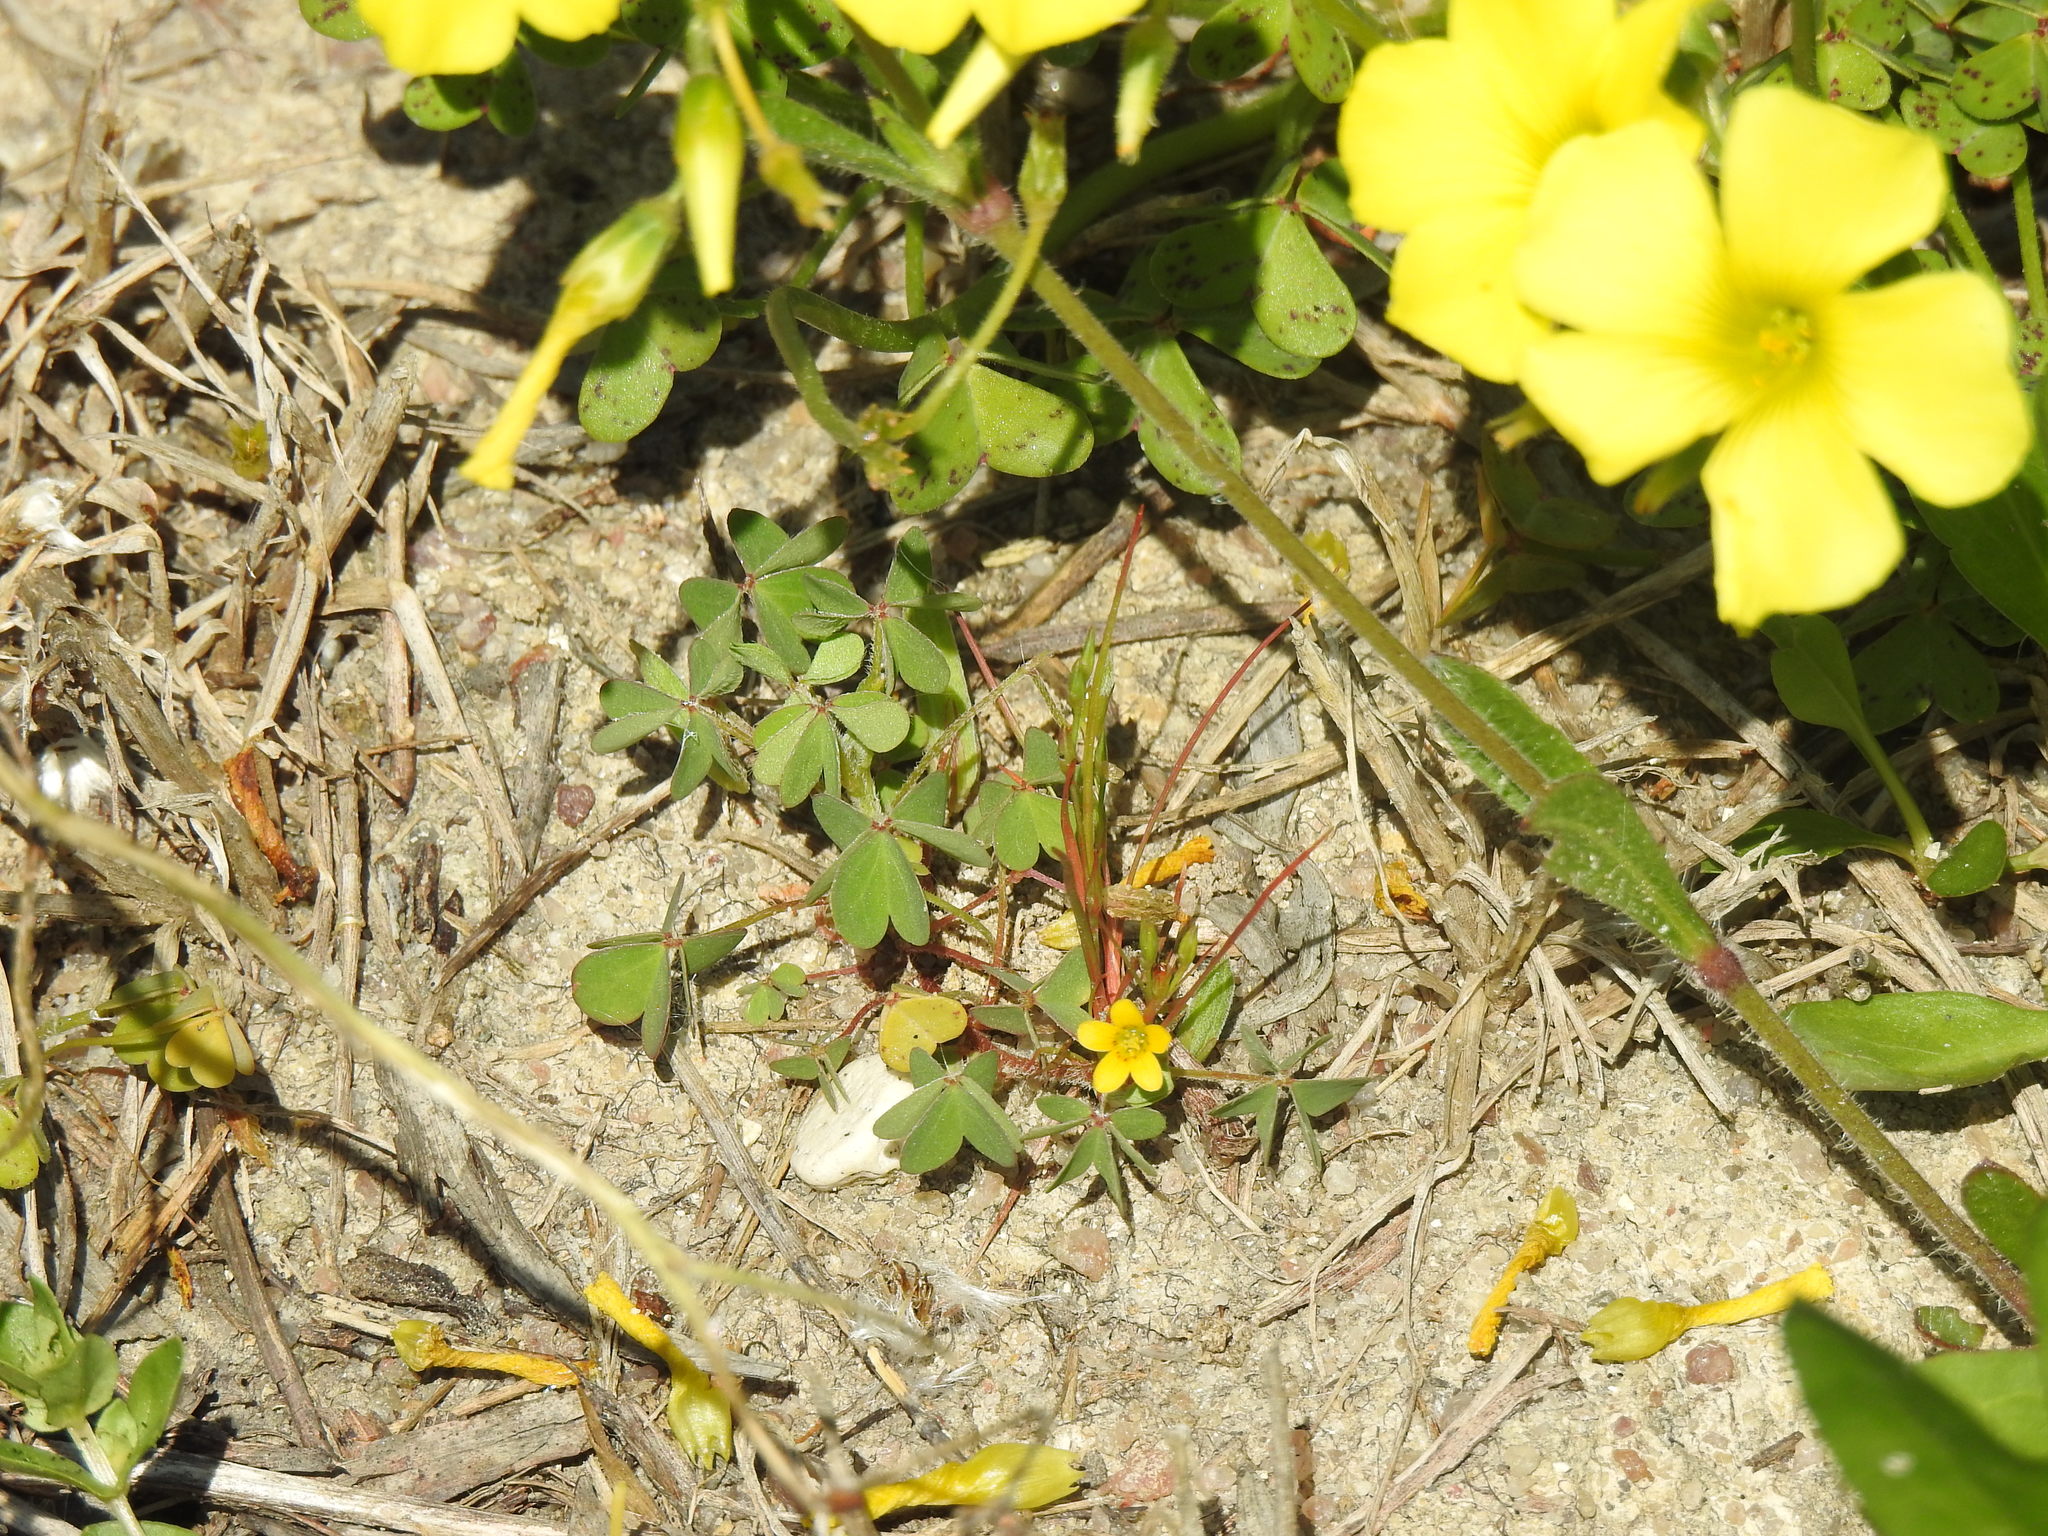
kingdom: Plantae
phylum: Tracheophyta
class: Magnoliopsida
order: Oxalidales
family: Oxalidaceae
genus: Oxalis
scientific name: Oxalis corniculata
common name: Procumbent yellow-sorrel
